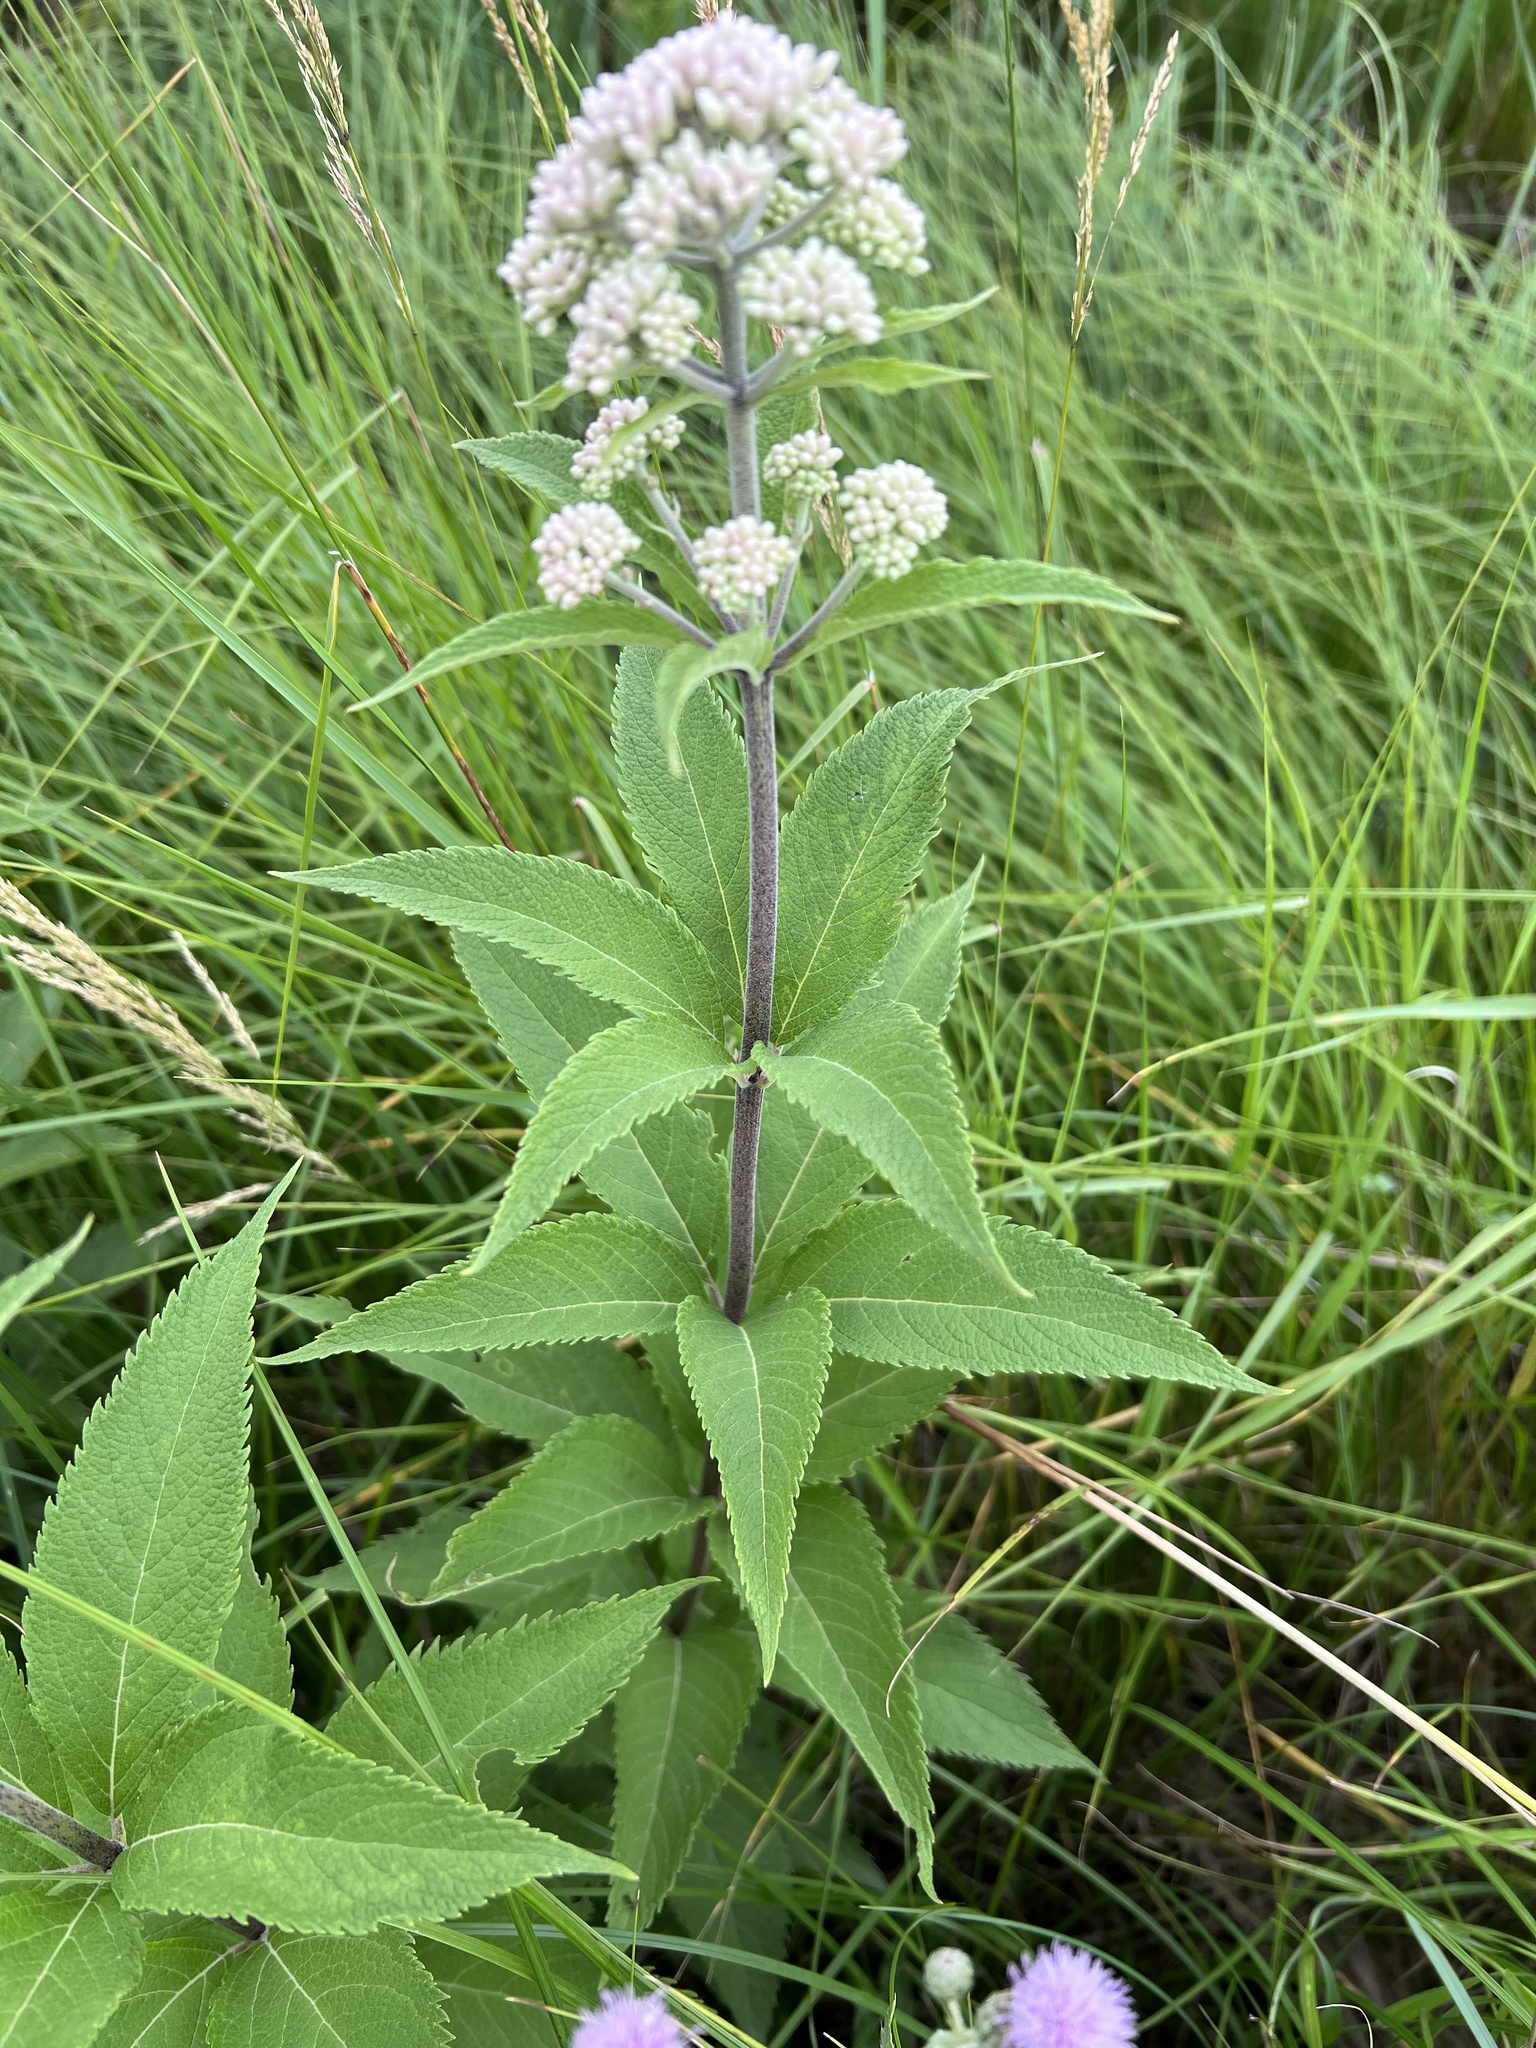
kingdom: Plantae
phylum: Tracheophyta
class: Magnoliopsida
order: Asterales
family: Asteraceae
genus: Eutrochium
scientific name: Eutrochium maculatum
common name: Spotted joe pye weed
